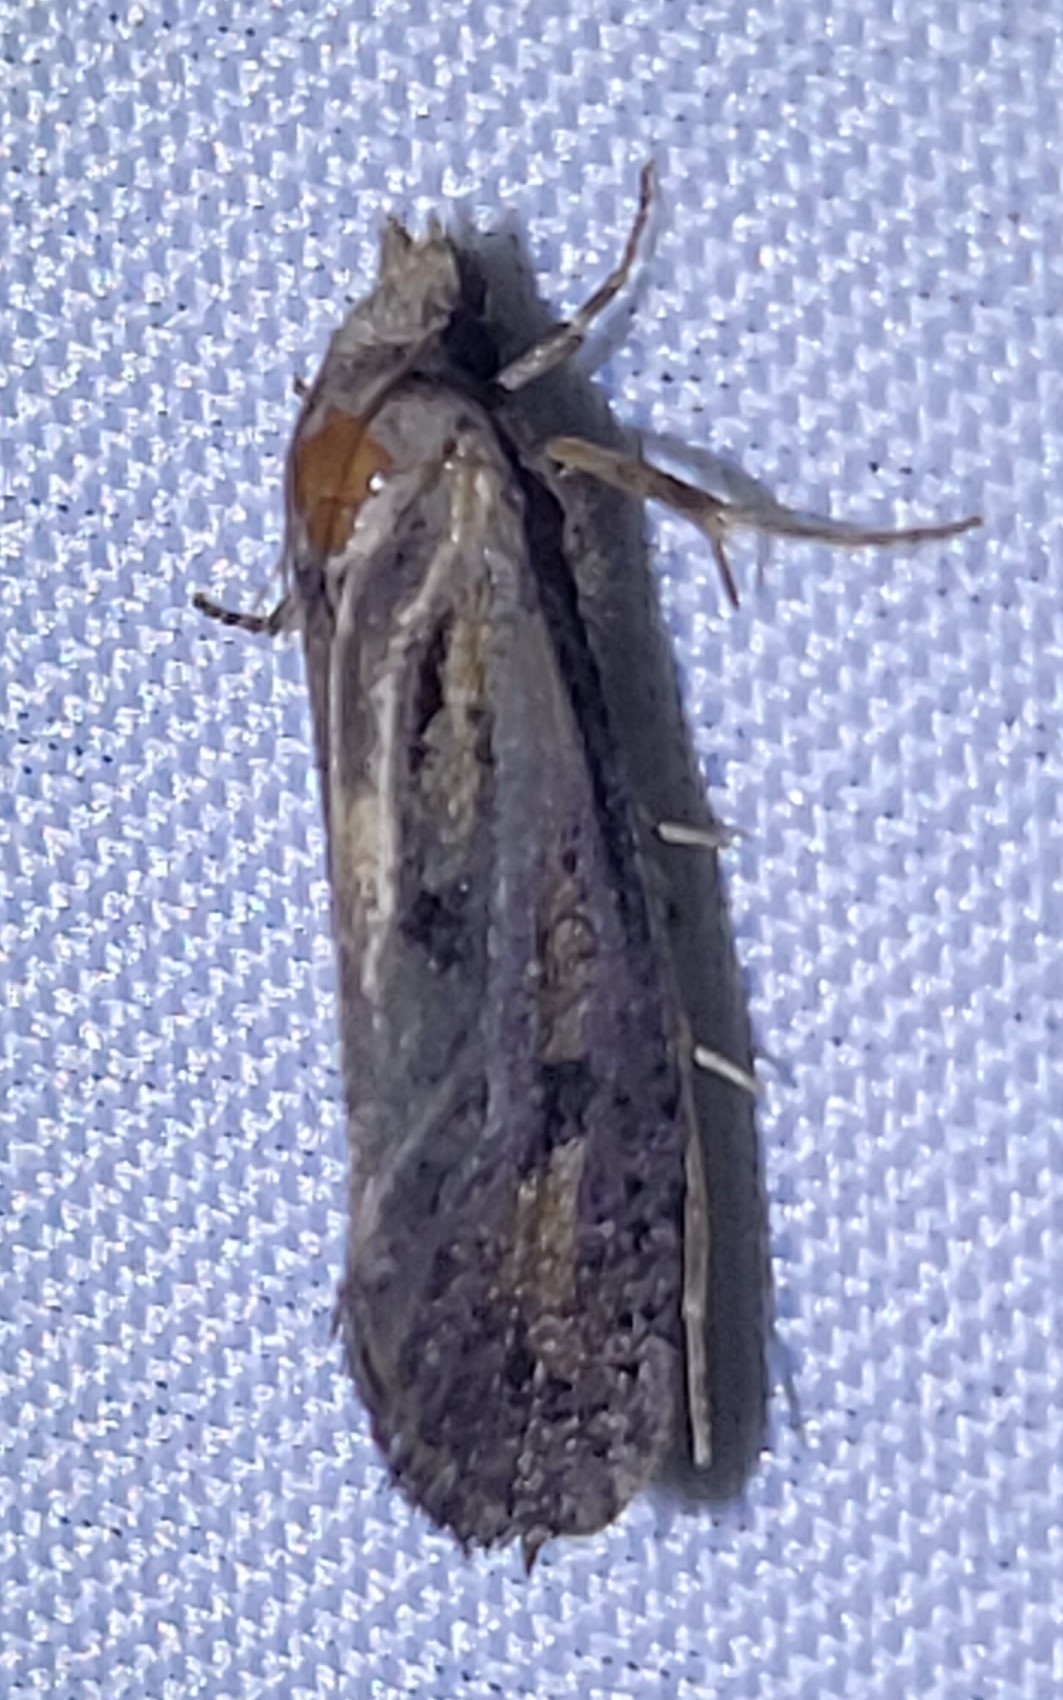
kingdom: Animalia
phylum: Arthropoda
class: Insecta
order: Lepidoptera
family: Tineidae
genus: Acrolophus
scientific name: Acrolophus popeanella
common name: Clemens' grass tubeworm moth
